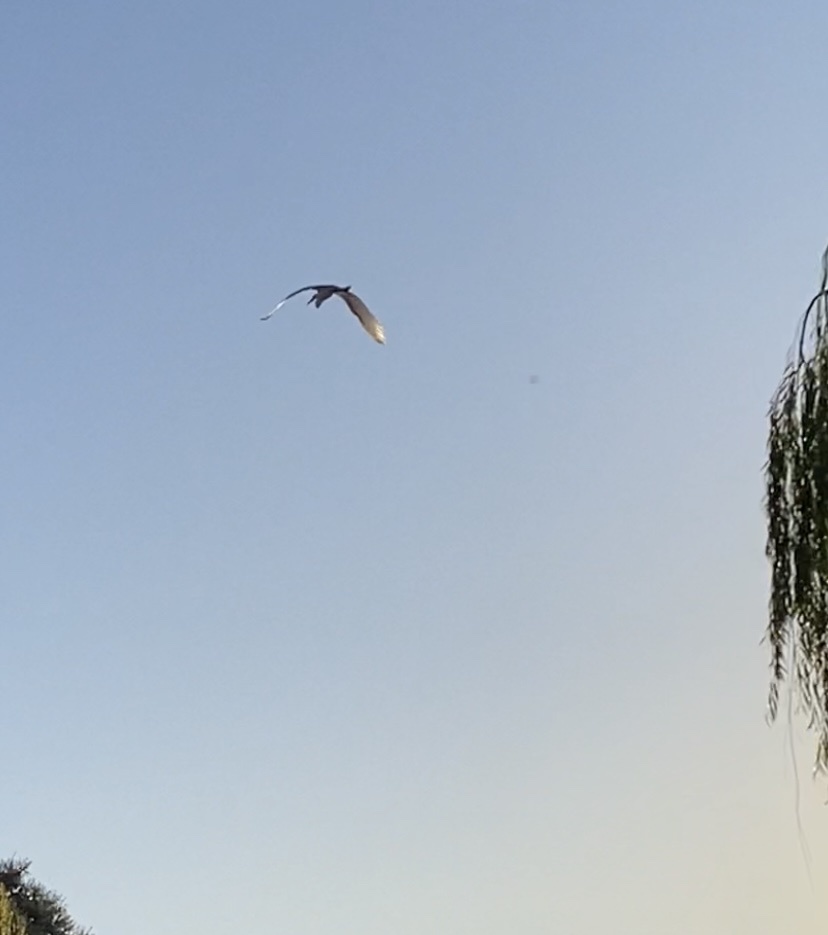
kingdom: Animalia
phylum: Chordata
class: Aves
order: Pelecaniformes
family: Ardeidae
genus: Ardea
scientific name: Ardea alba
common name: Great egret
